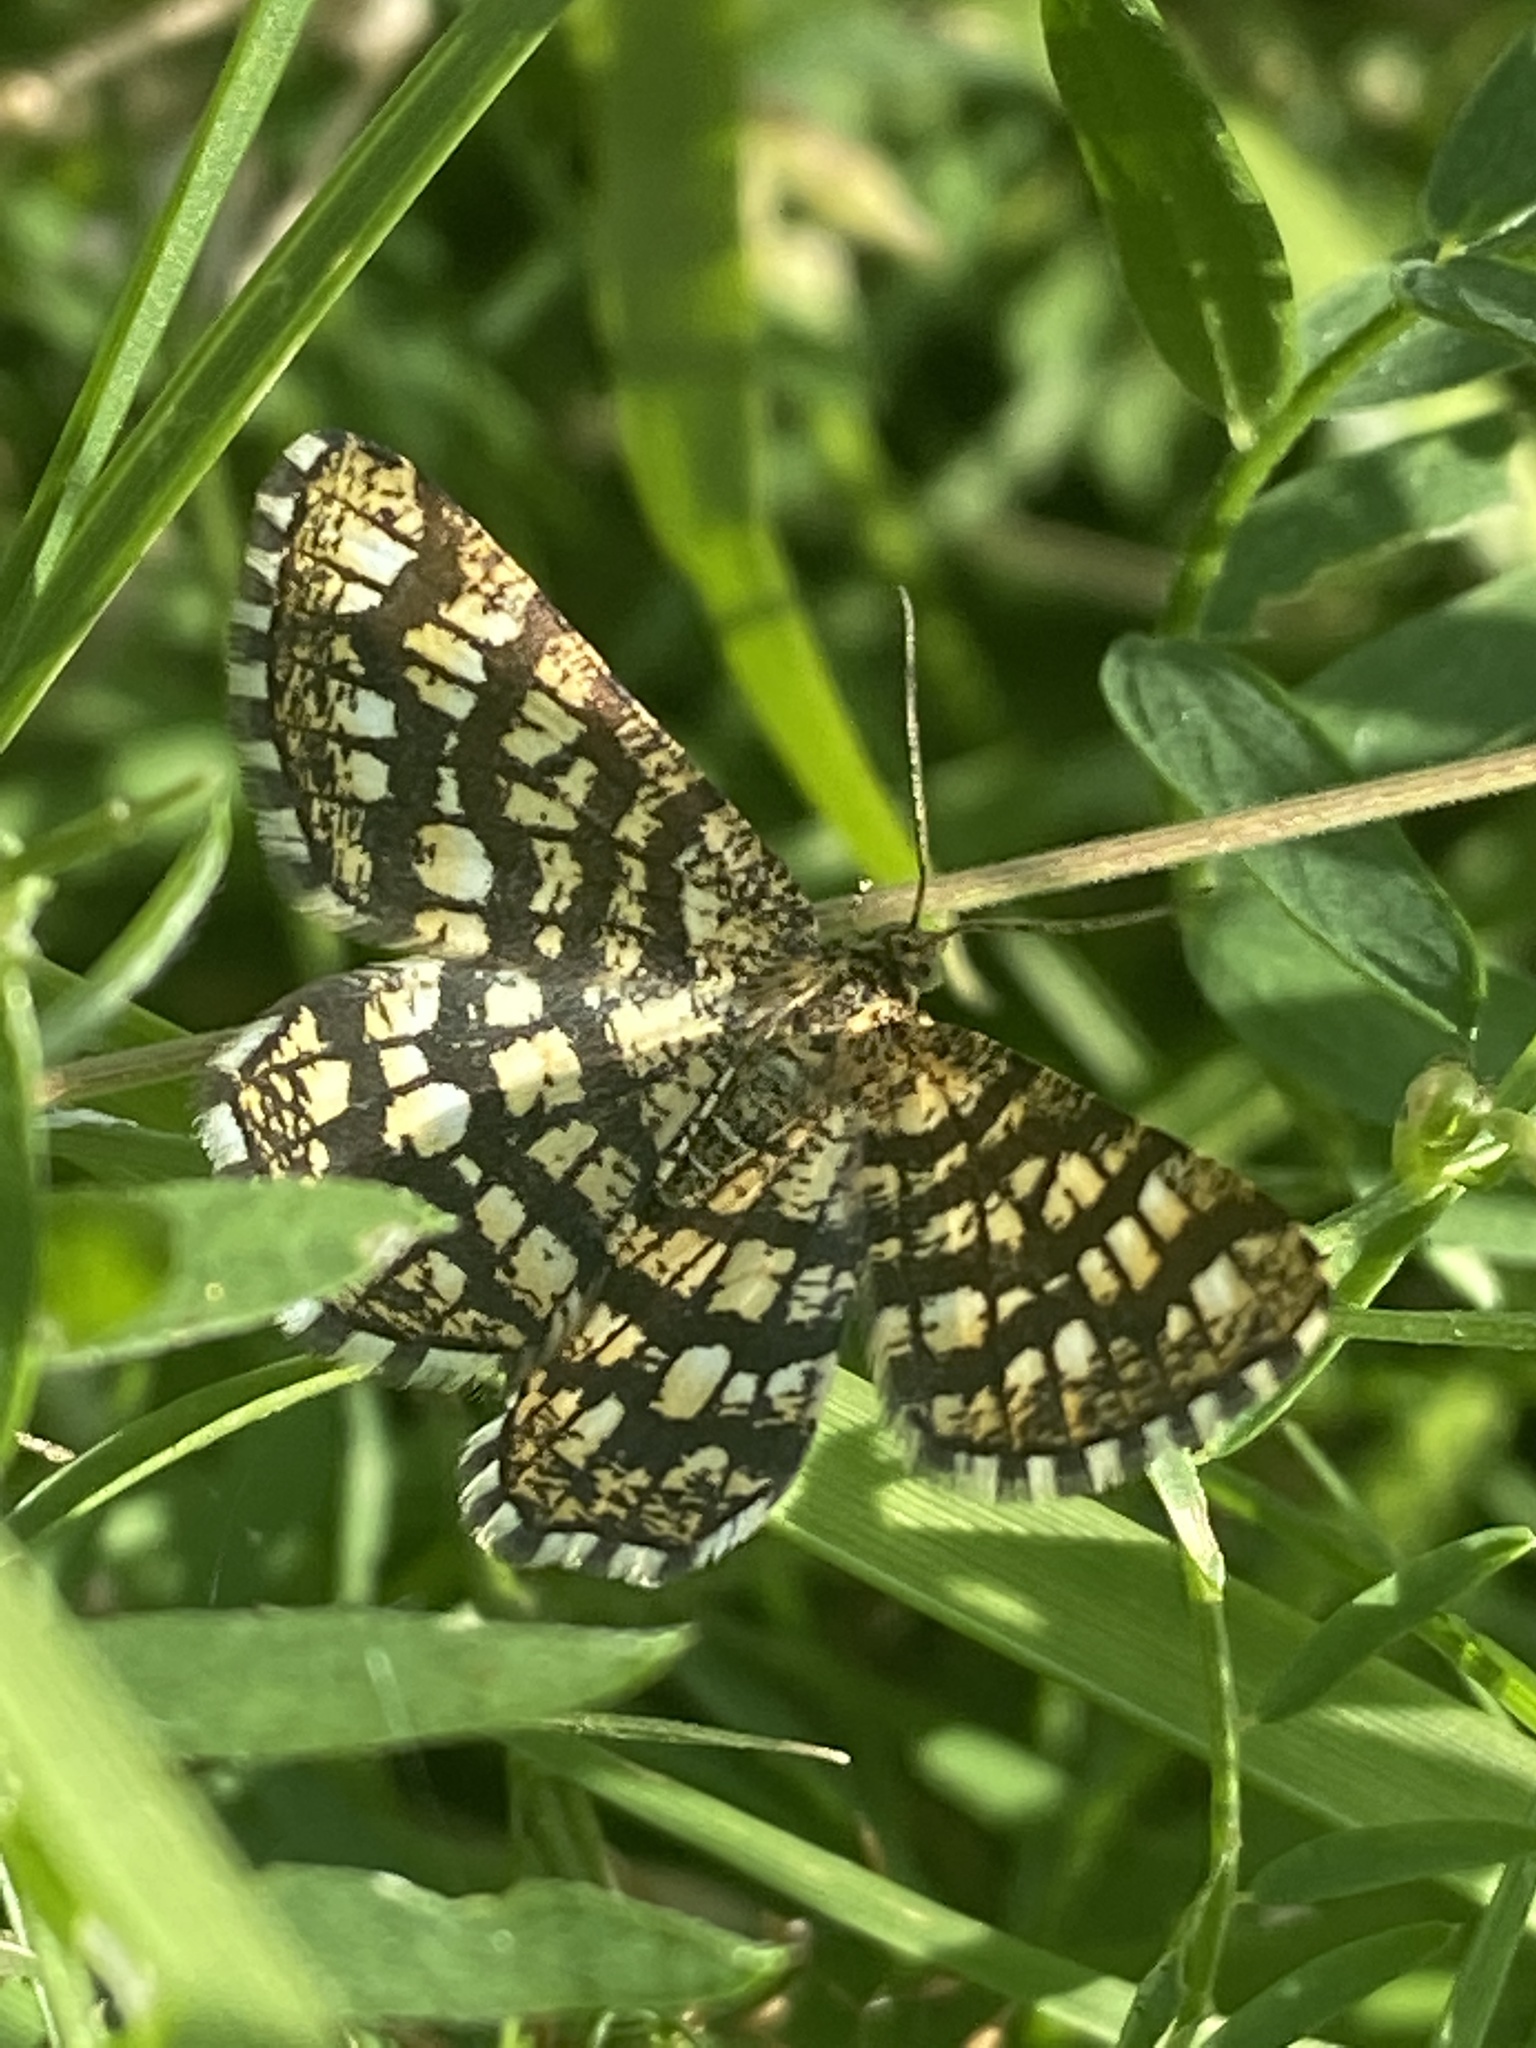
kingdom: Animalia
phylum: Arthropoda
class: Insecta
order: Lepidoptera
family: Geometridae
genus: Chiasmia
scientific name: Chiasmia clathrata
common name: Latticed heath
